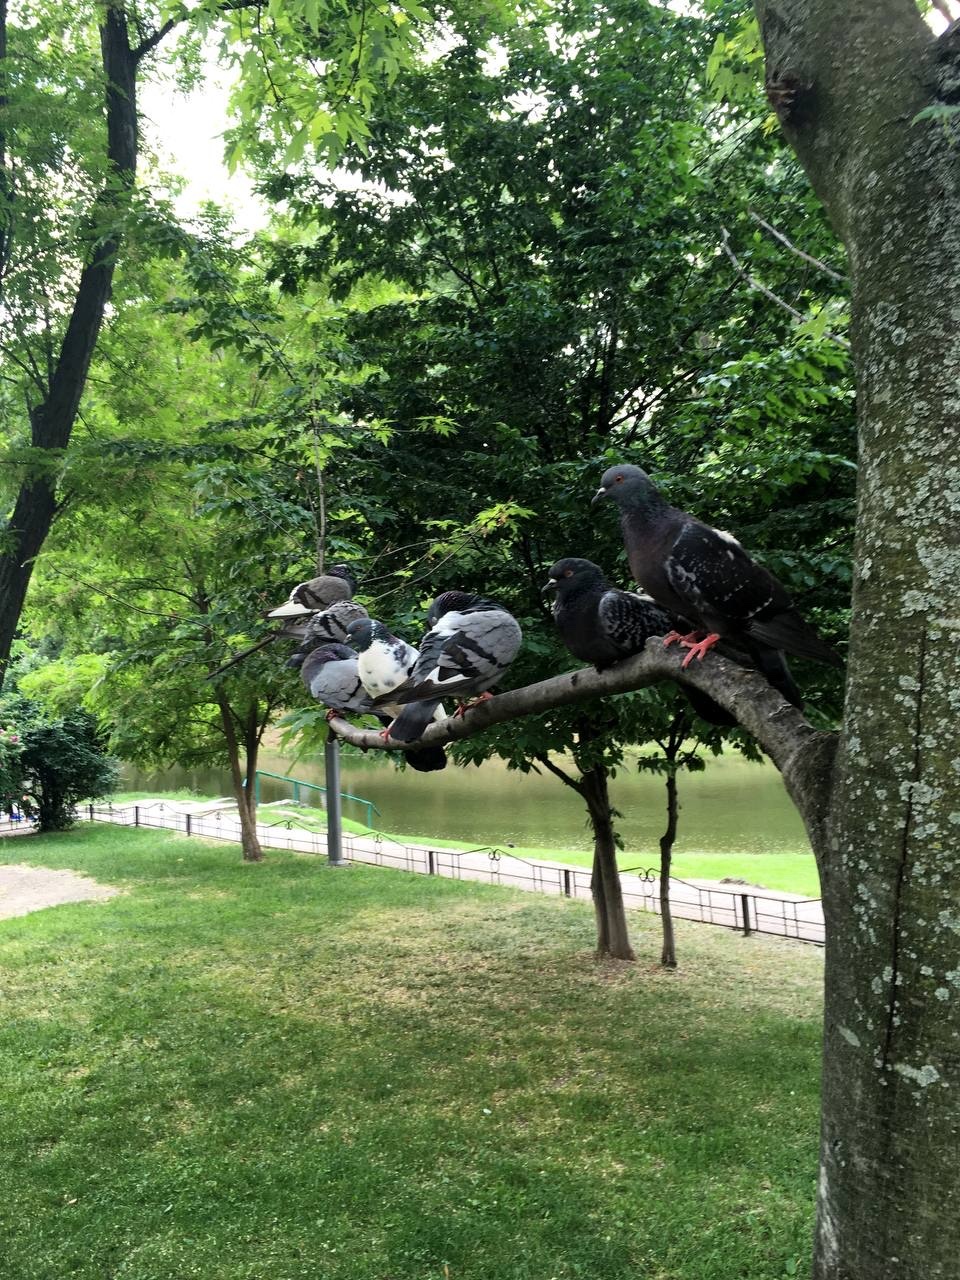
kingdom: Animalia
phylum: Chordata
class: Aves
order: Columbiformes
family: Columbidae
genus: Columba
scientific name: Columba livia
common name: Rock pigeon
